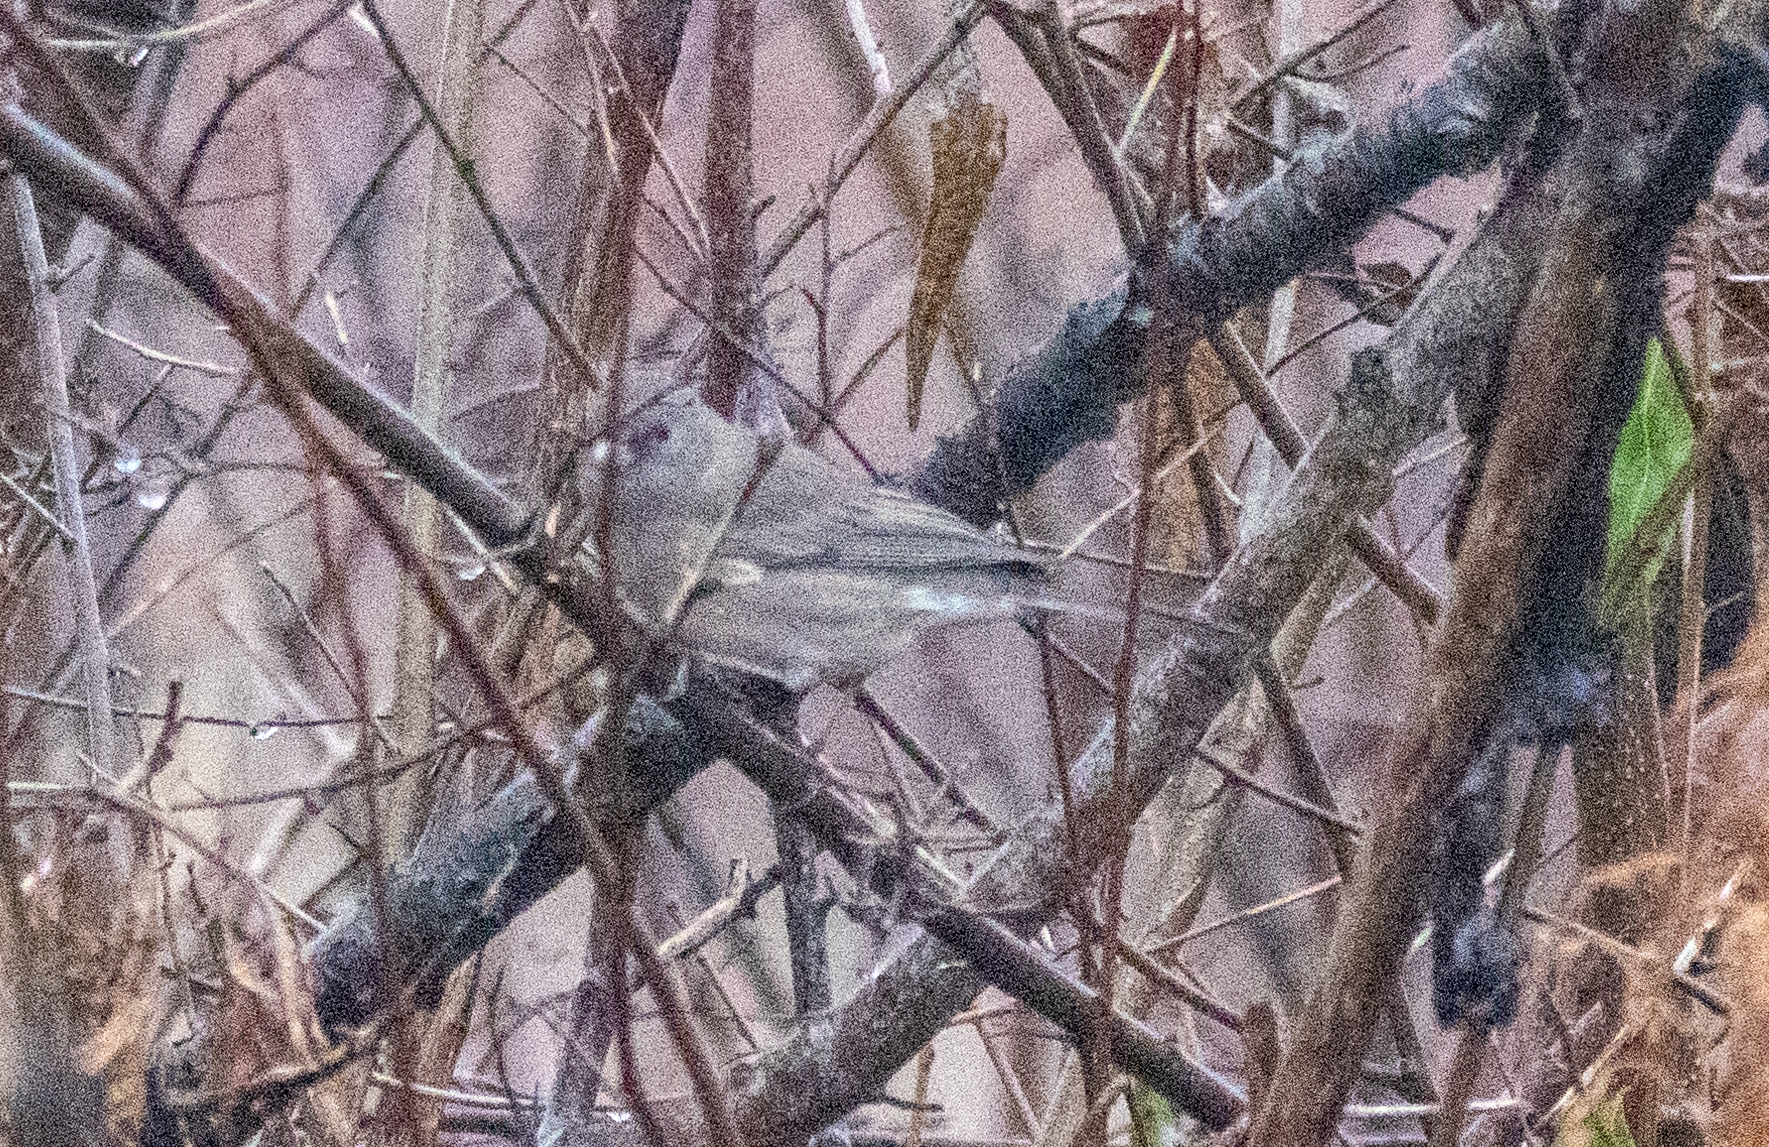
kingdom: Animalia
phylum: Chordata
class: Aves
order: Passeriformes
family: Passerellidae
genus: Junco
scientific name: Junco hyemalis
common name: Dark-eyed junco
